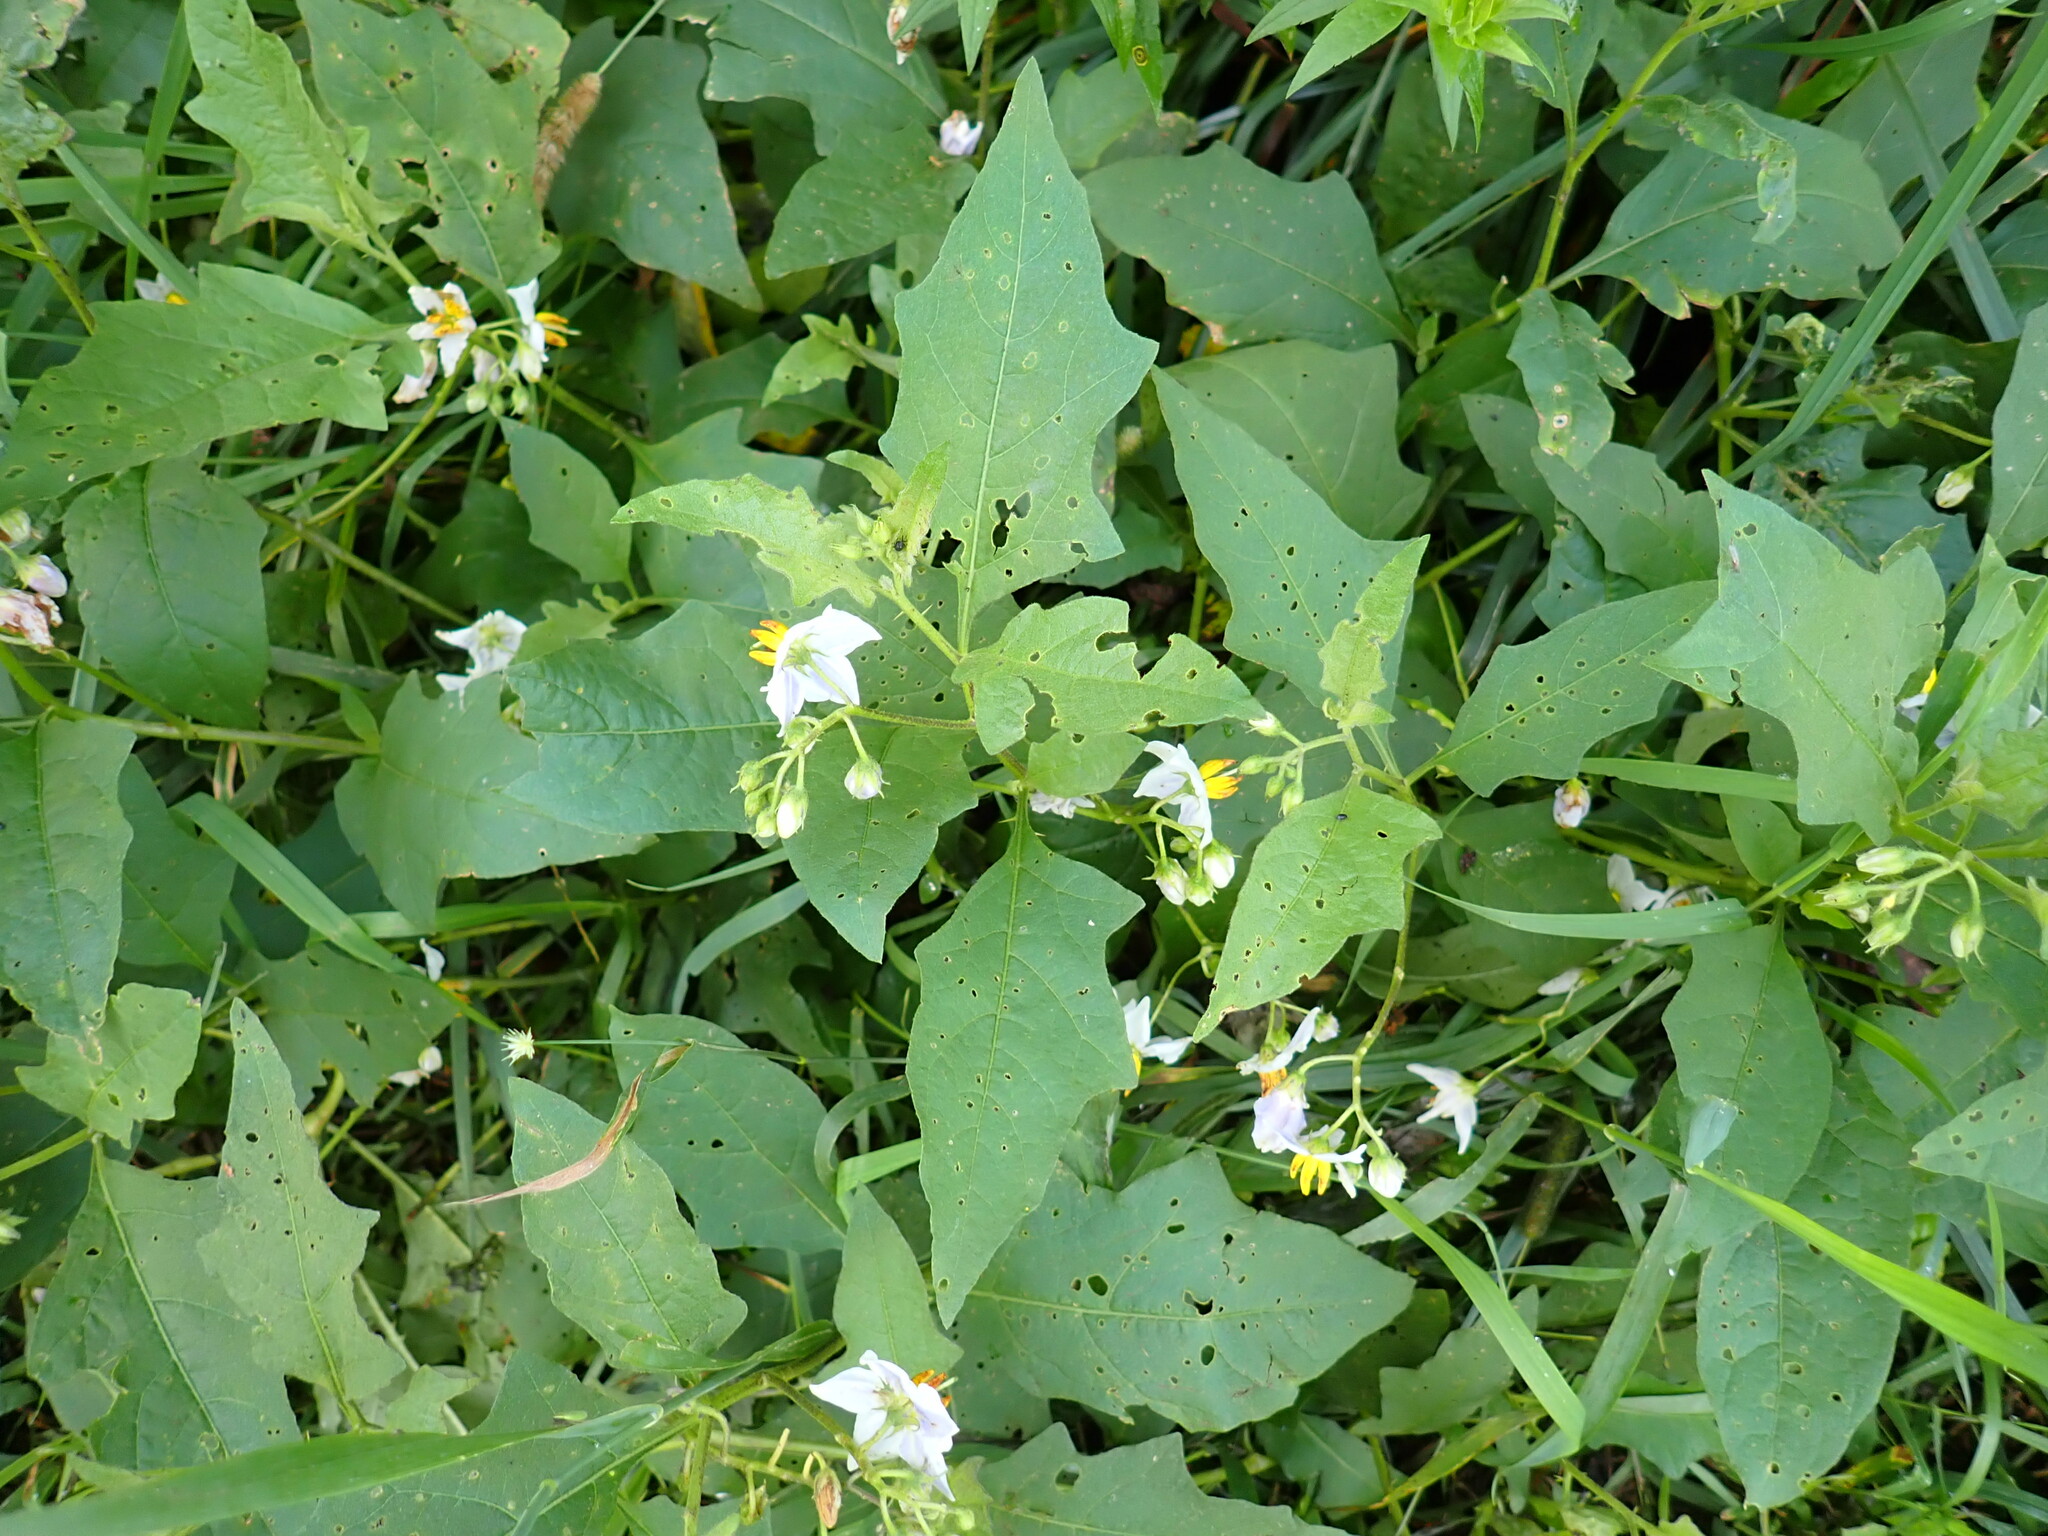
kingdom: Plantae
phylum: Tracheophyta
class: Magnoliopsida
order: Solanales
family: Solanaceae
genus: Solanum
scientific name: Solanum carolinense
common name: Horse-nettle
